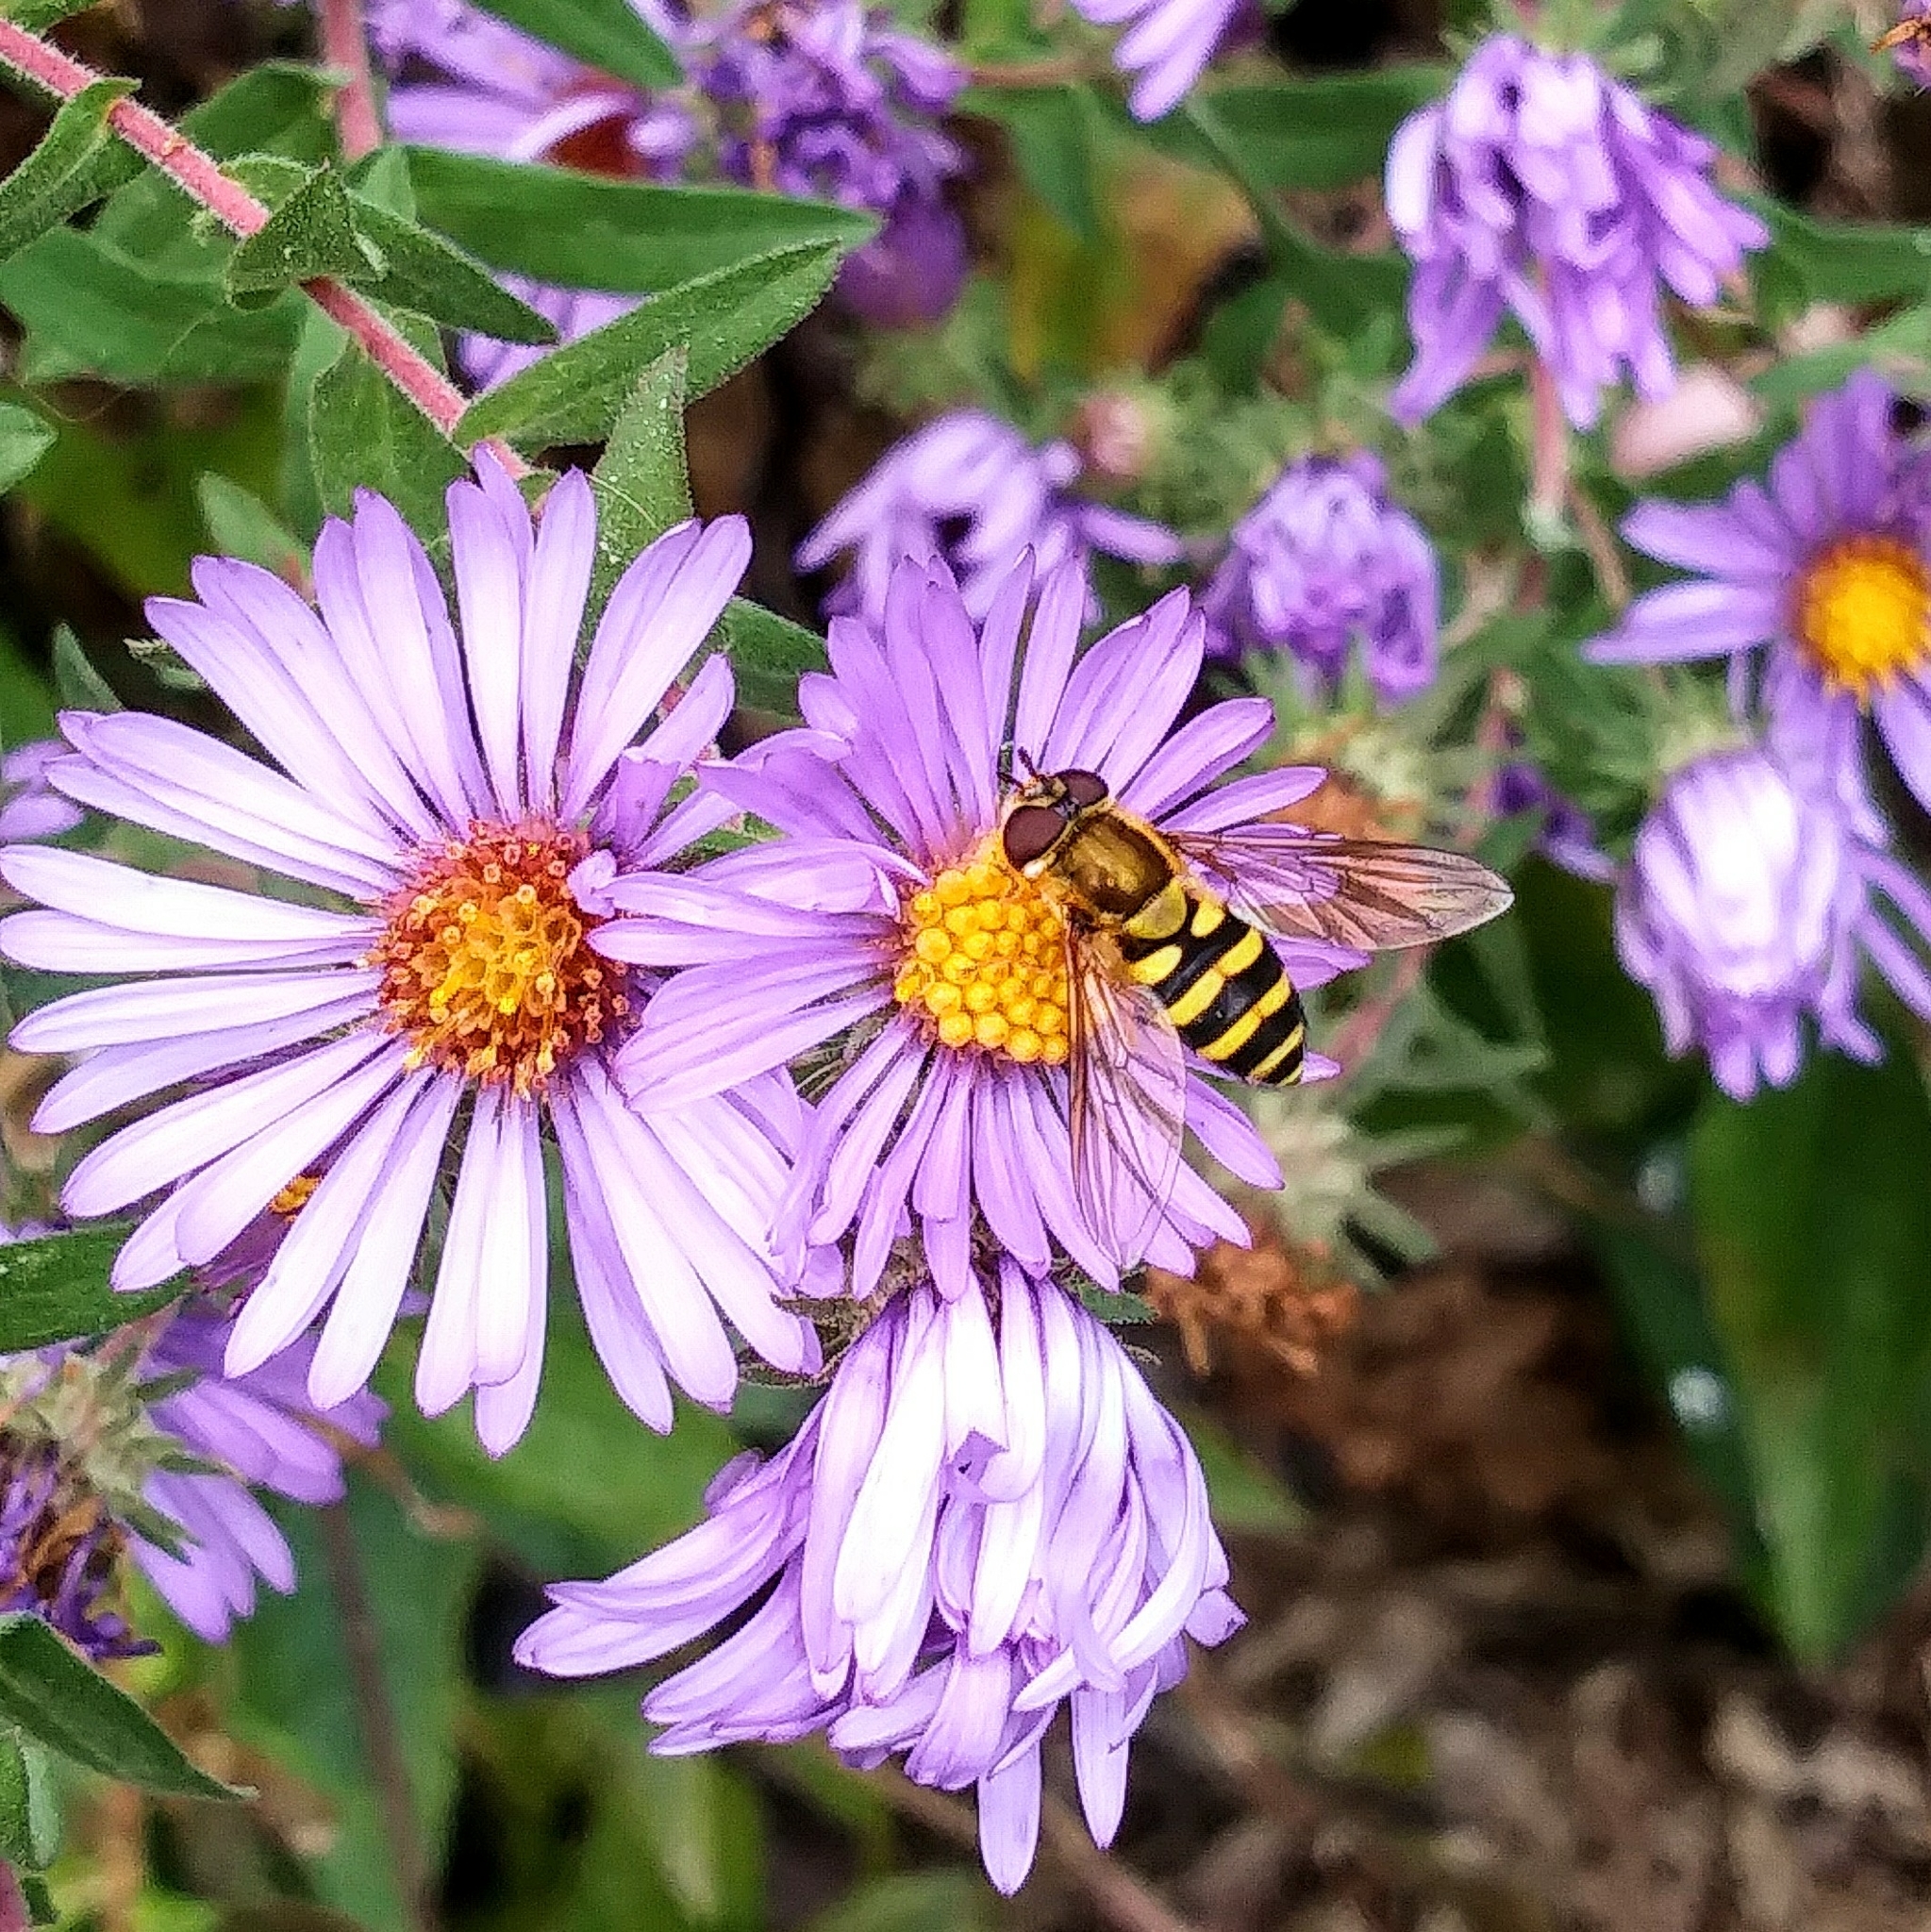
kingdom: Animalia
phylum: Arthropoda
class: Insecta
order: Diptera
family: Syrphidae
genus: Syrphus
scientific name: Syrphus
